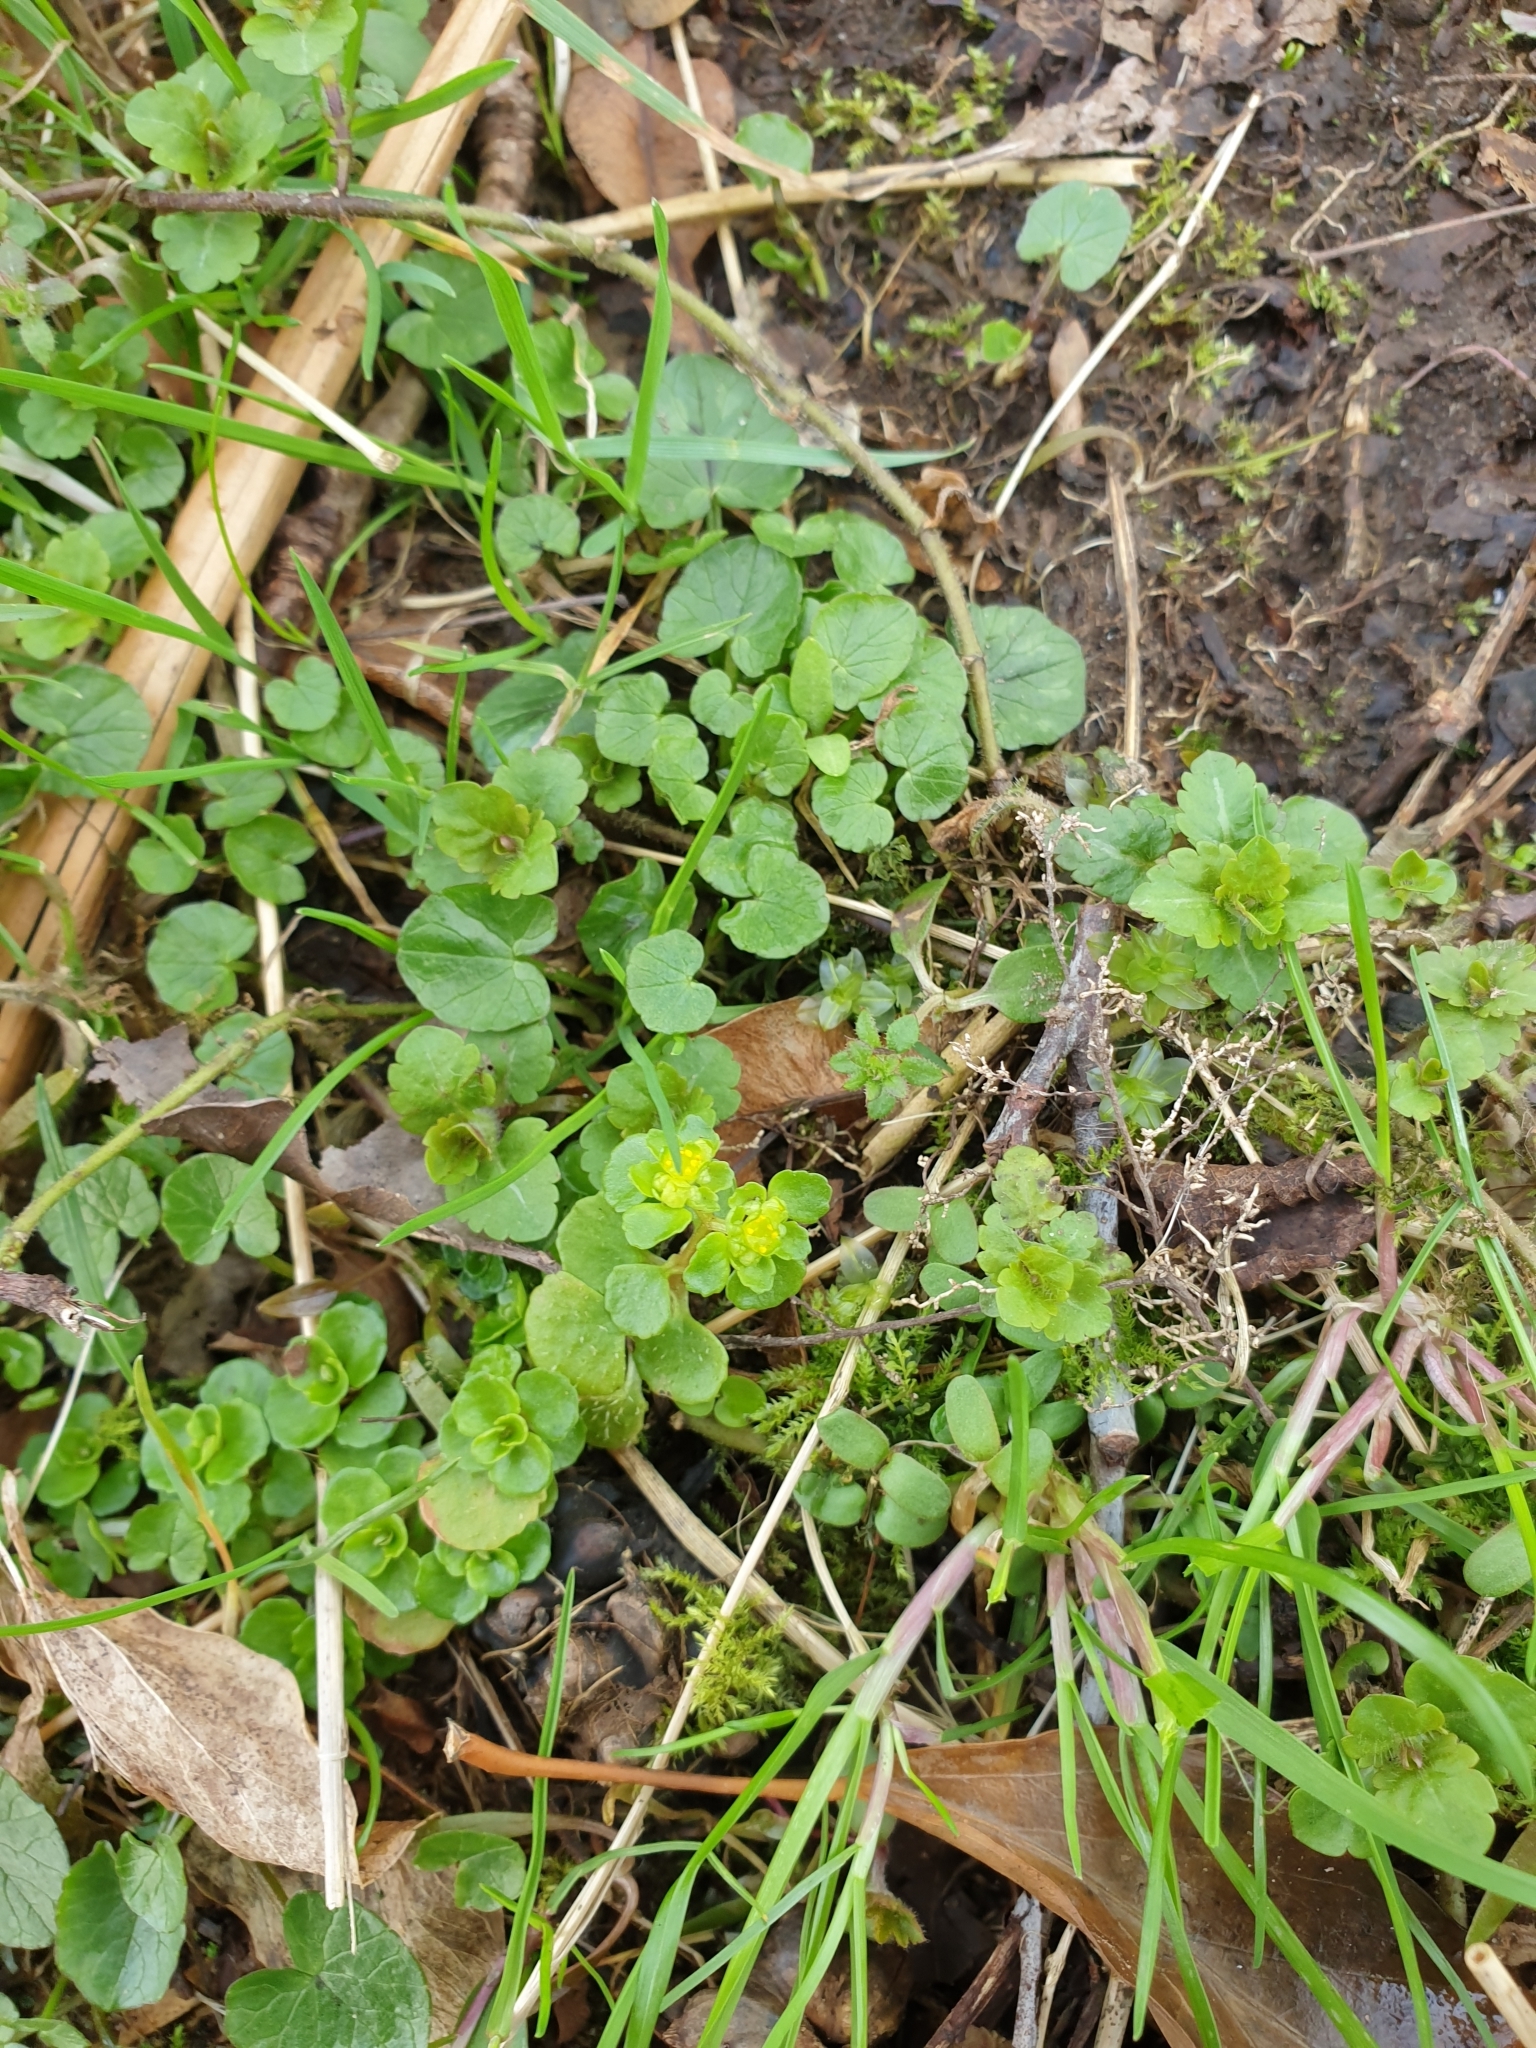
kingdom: Plantae
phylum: Tracheophyta
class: Magnoliopsida
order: Saxifragales
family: Saxifragaceae
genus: Chrysosplenium
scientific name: Chrysosplenium oppositifolium
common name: Opposite-leaved golden-saxifrage
